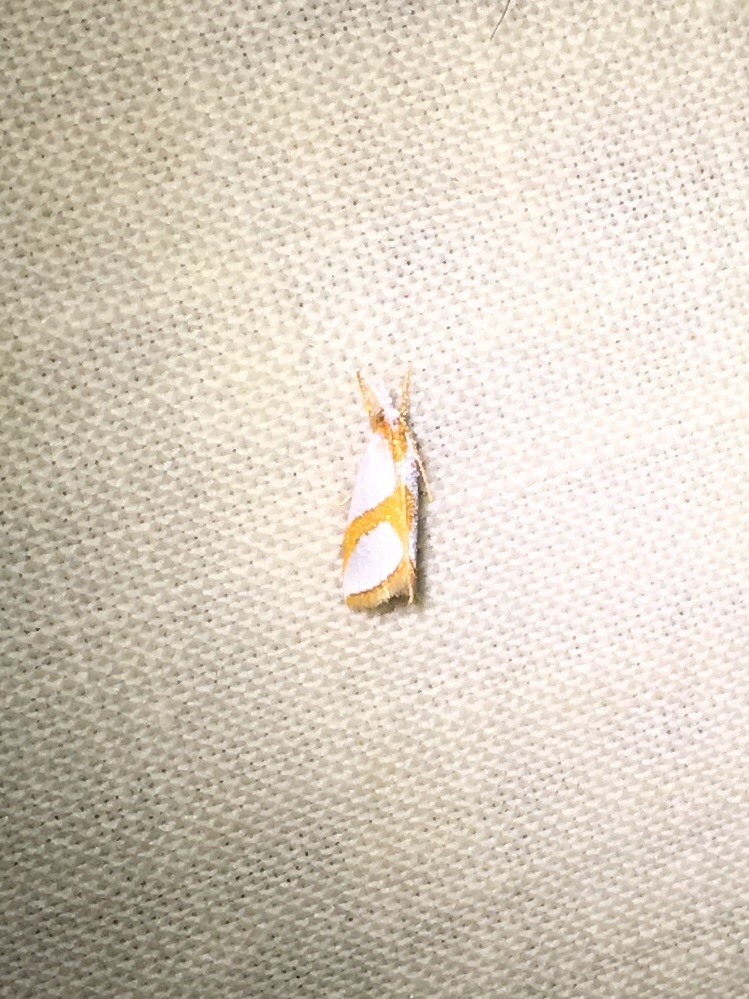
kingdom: Animalia
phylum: Arthropoda
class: Insecta
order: Lepidoptera
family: Crambidae
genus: Argyria
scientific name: Argyria auratella
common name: Curve-lined argyria moth
